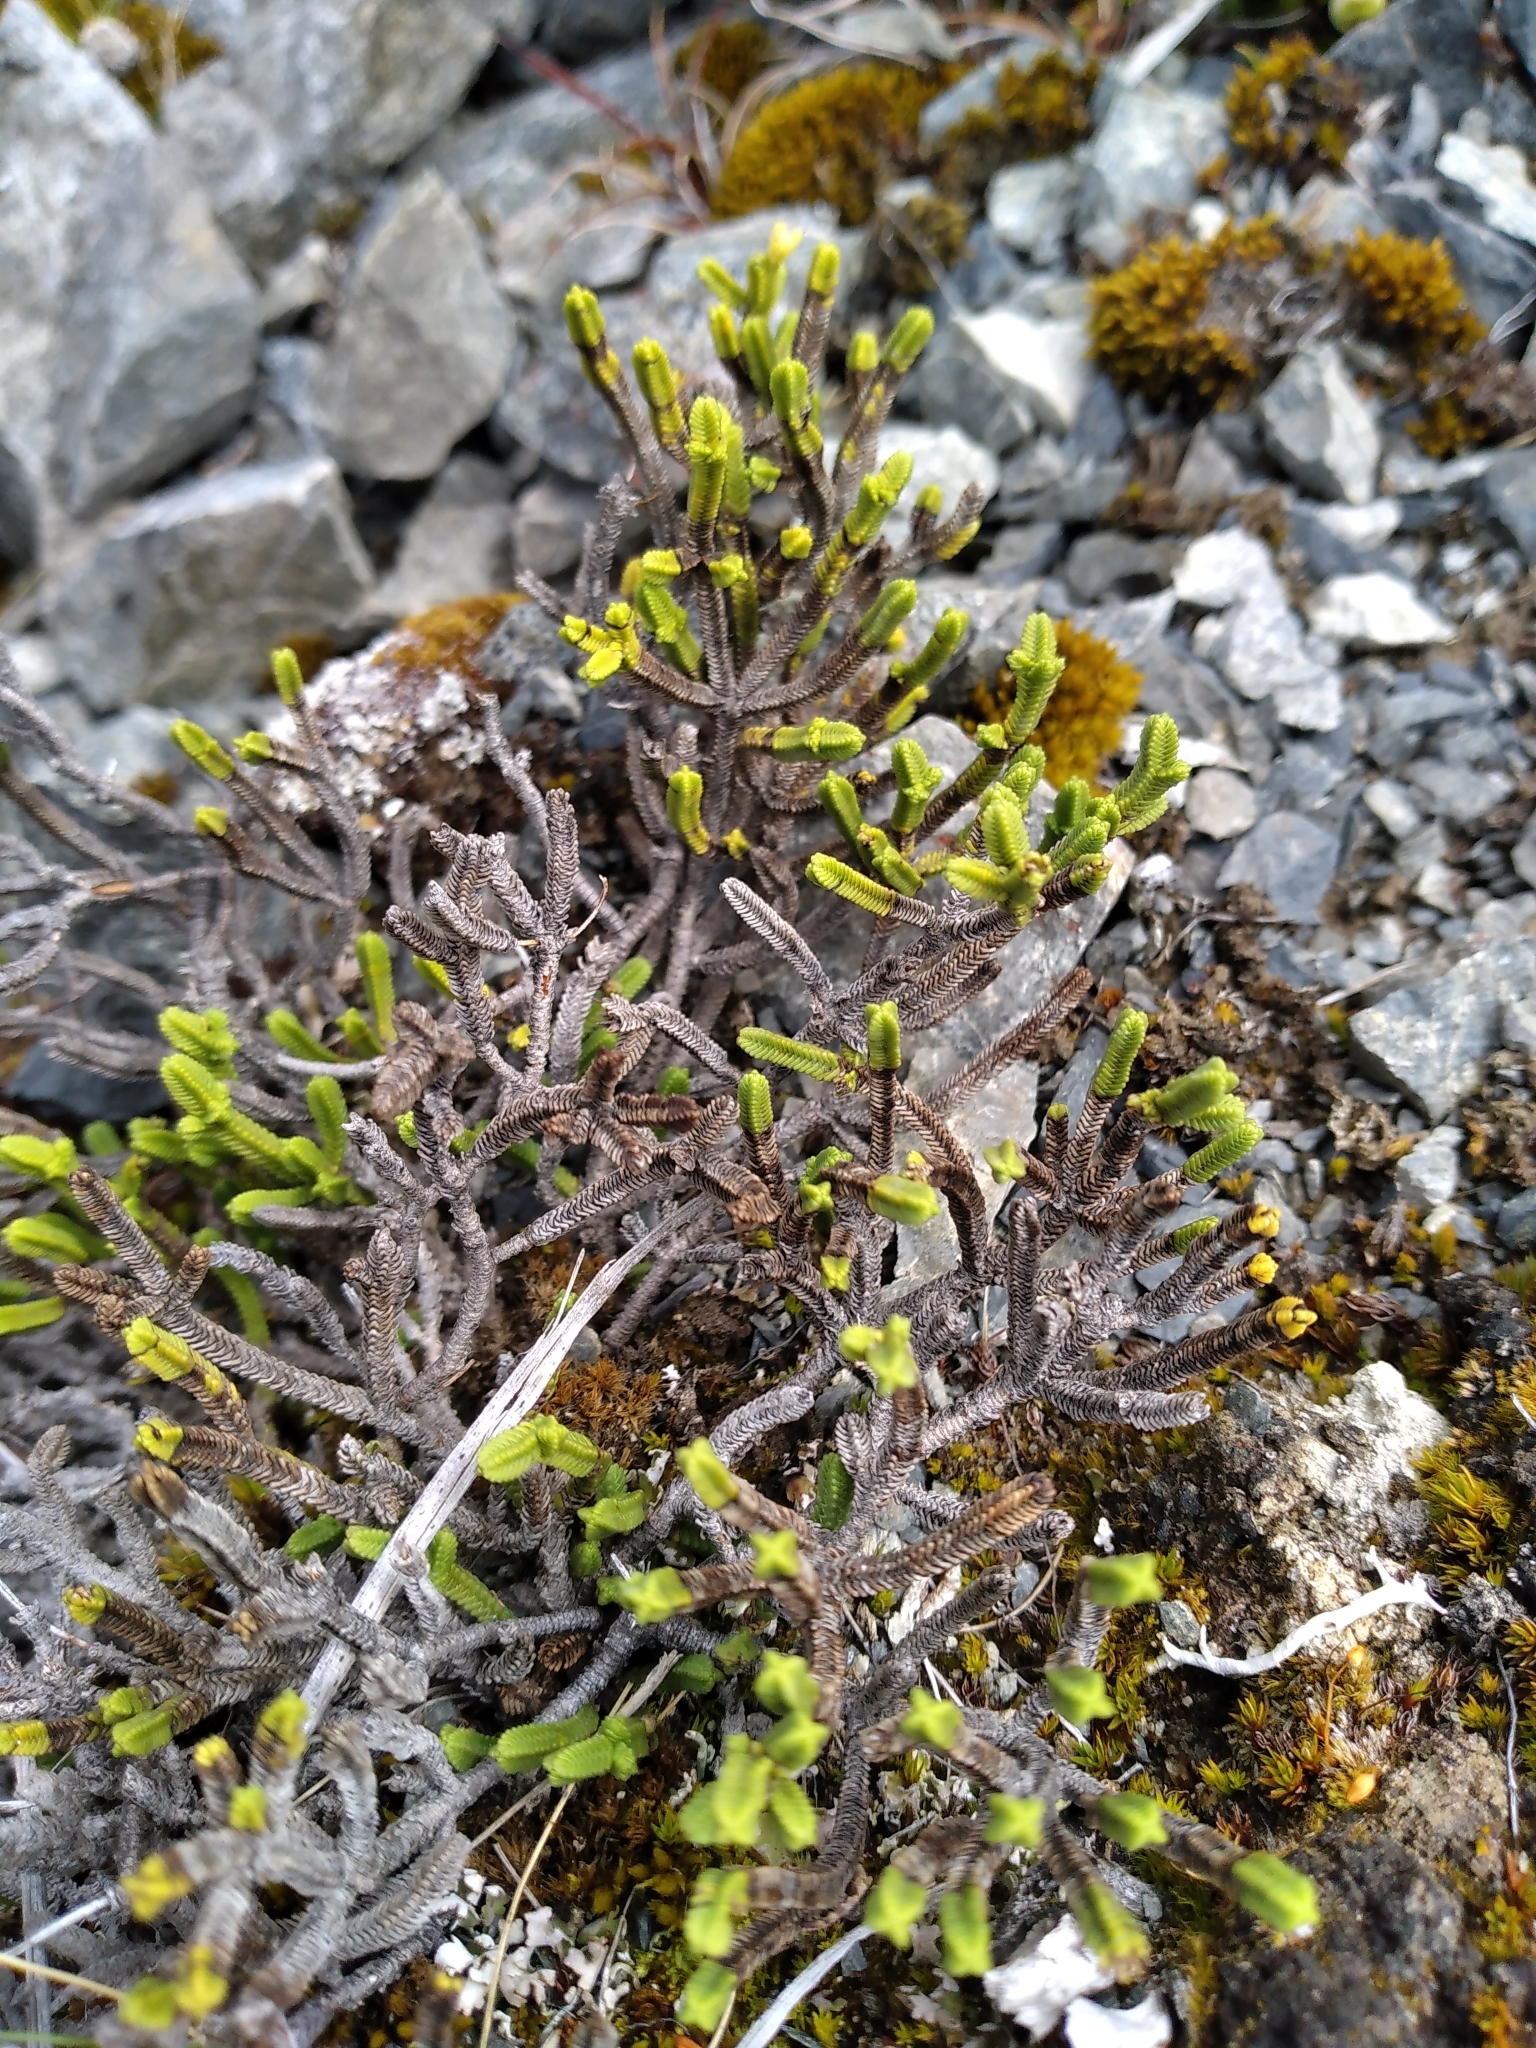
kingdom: Plantae
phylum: Tracheophyta
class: Magnoliopsida
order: Lamiales
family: Plantaginaceae
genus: Veronica
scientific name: Veronica tetrasticha
